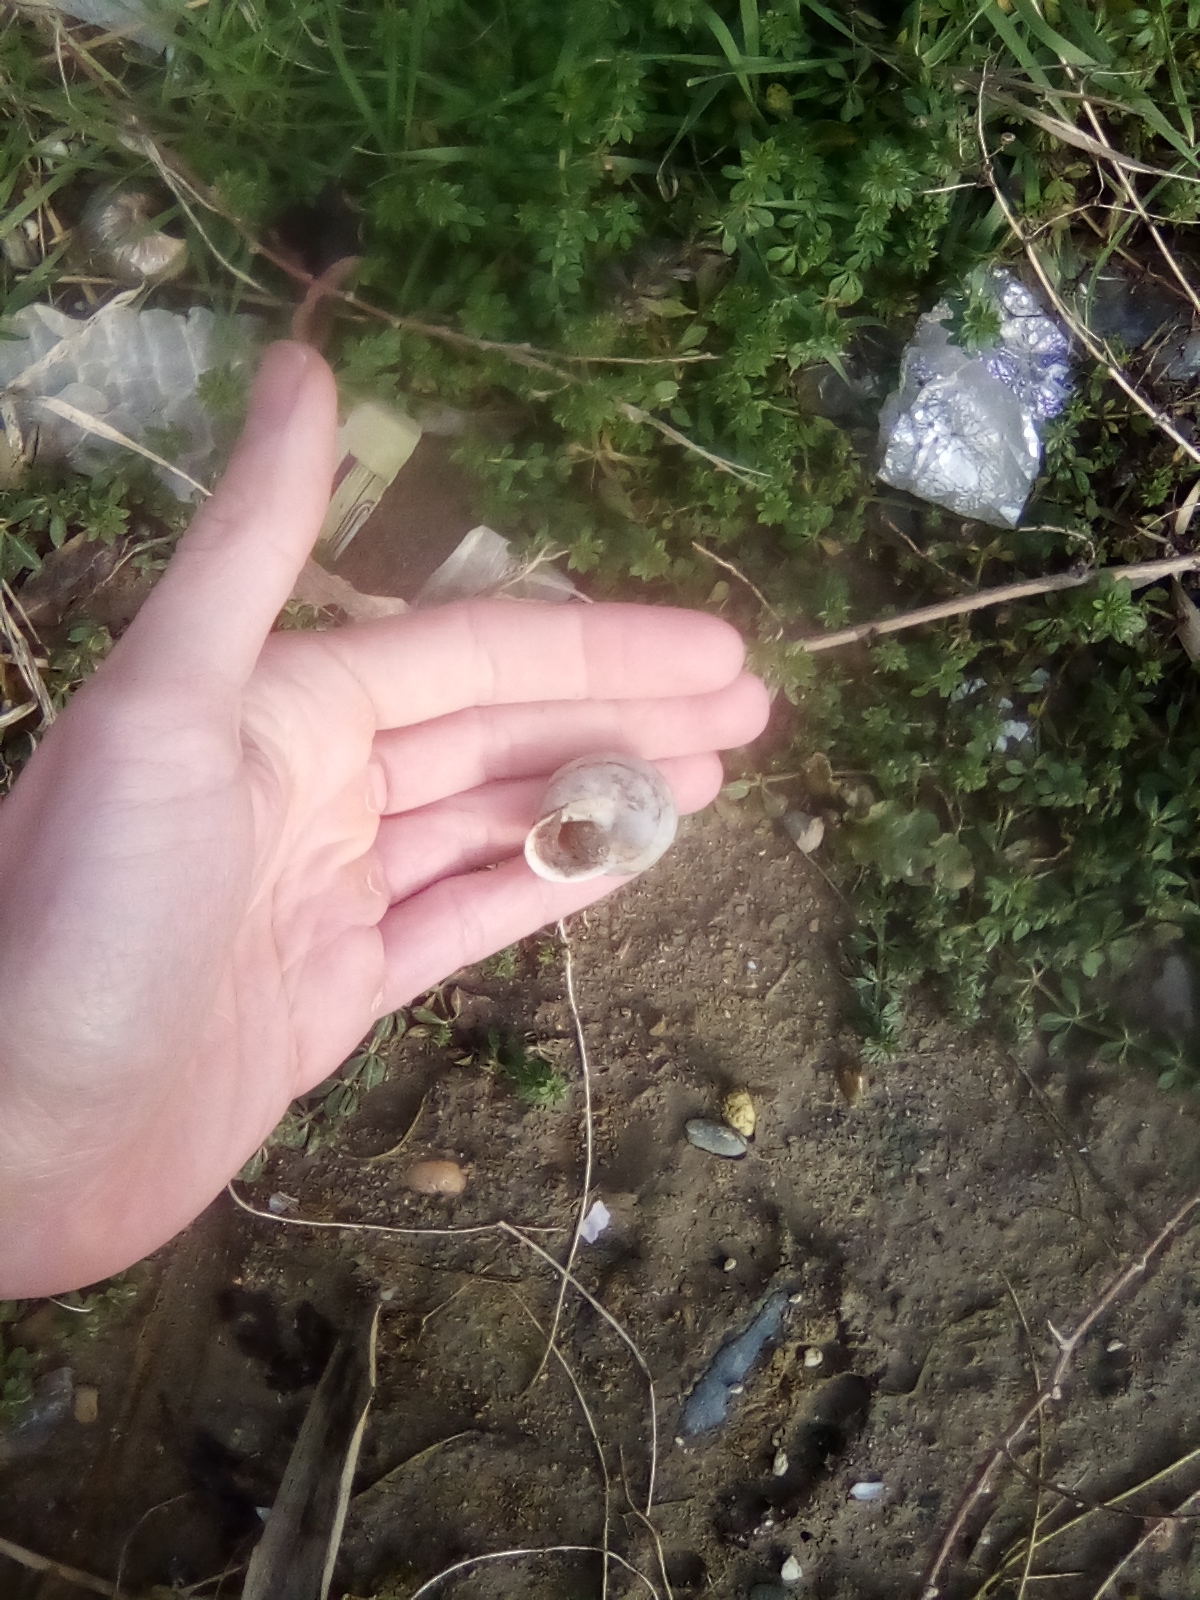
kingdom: Animalia
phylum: Mollusca
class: Gastropoda
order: Stylommatophora
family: Helicidae
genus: Eobania
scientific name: Eobania vermiculata
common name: Chocolateband snail
